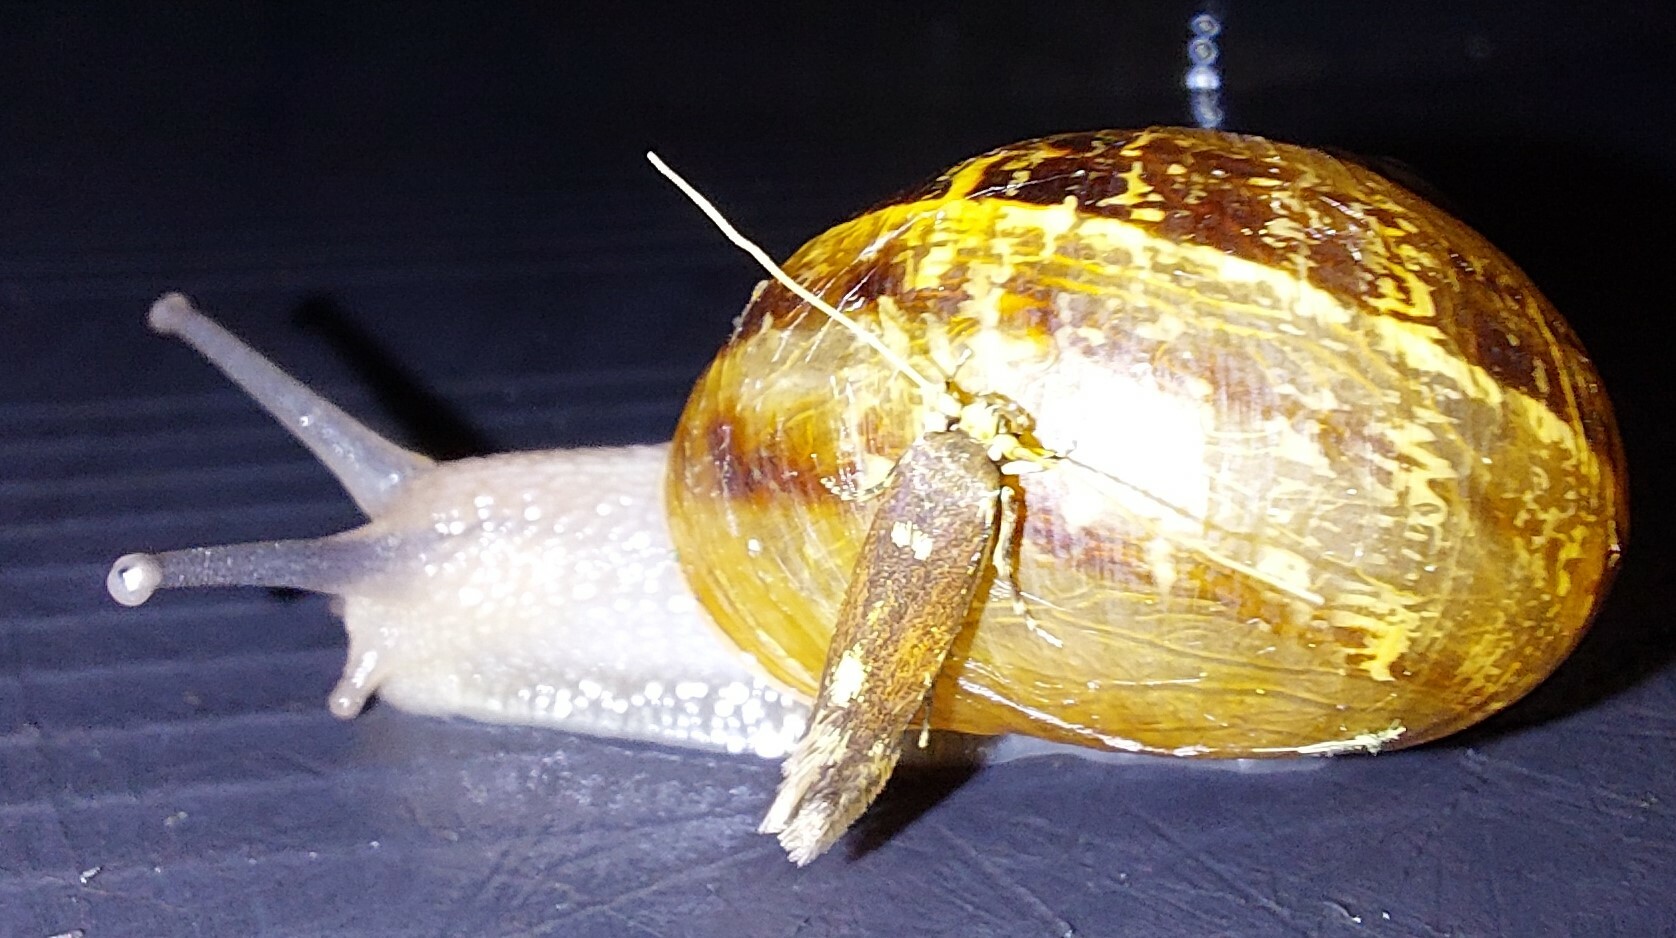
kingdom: Animalia
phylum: Mollusca
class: Gastropoda
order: Stylommatophora
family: Helicidae
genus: Cornu
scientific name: Cornu aspersum
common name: Brown garden snail
